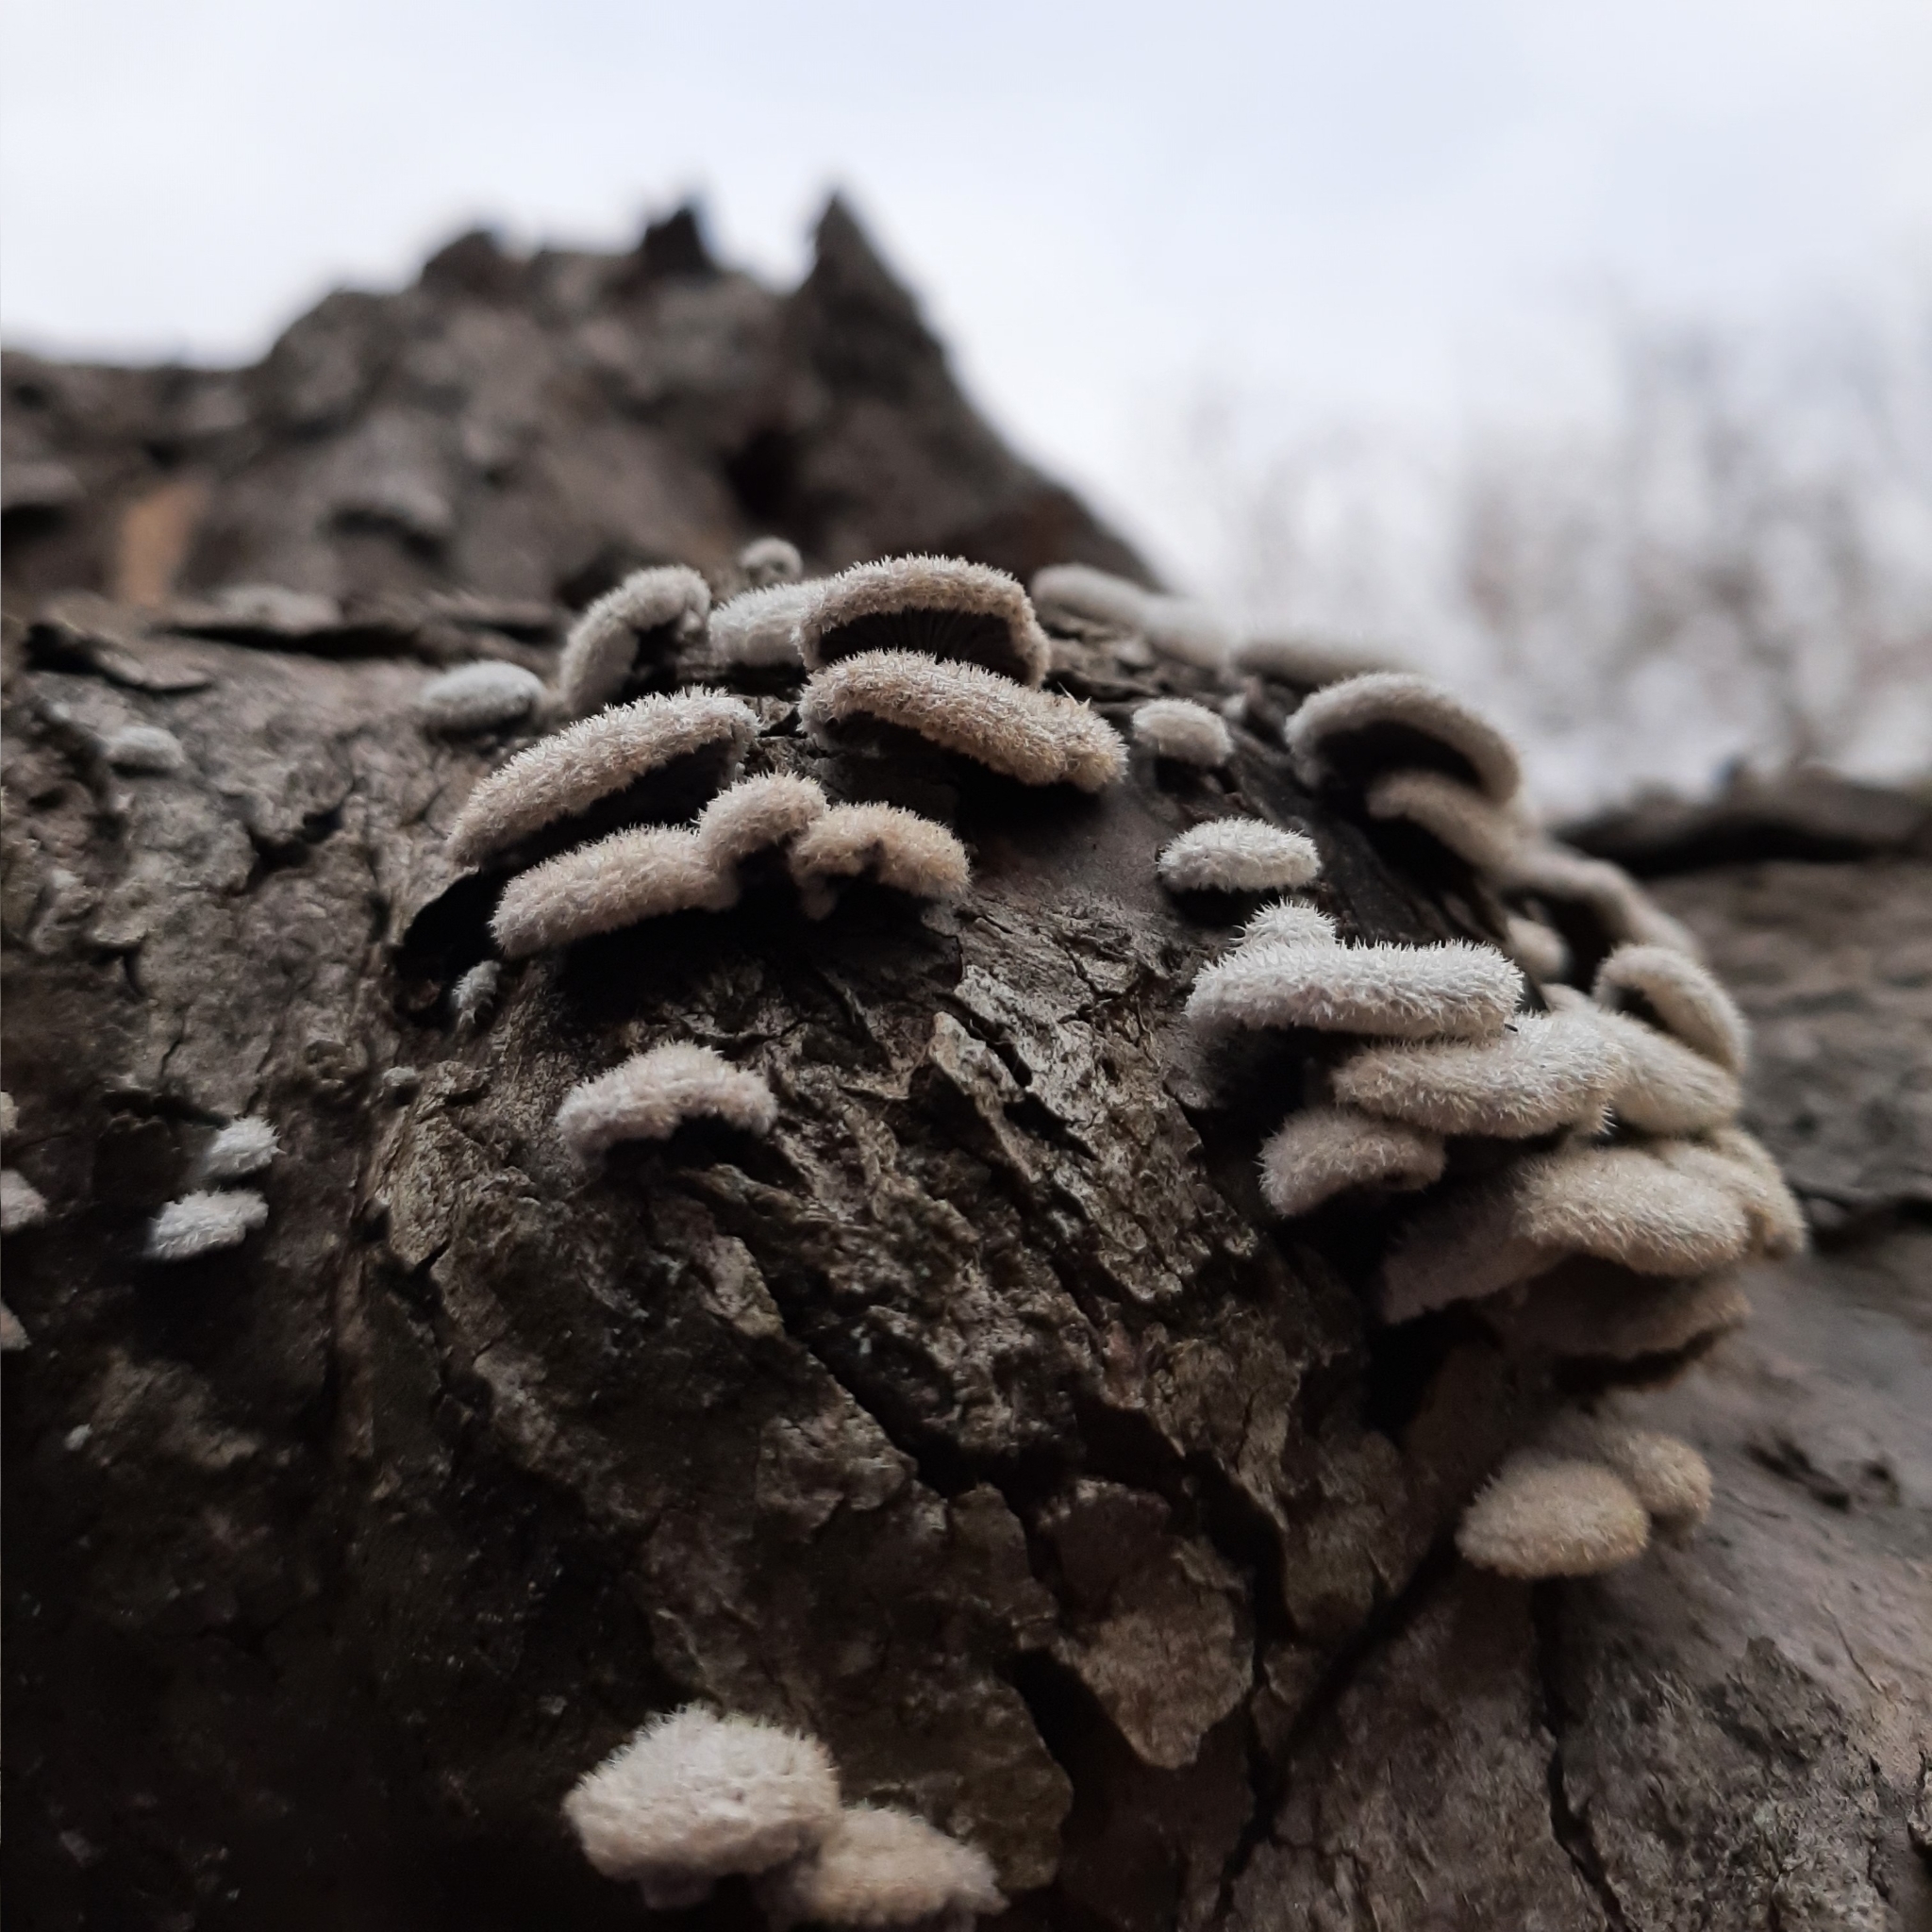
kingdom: Fungi
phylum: Basidiomycota
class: Agaricomycetes
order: Agaricales
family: Schizophyllaceae
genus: Schizophyllum
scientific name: Schizophyllum commune
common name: Common porecrust
